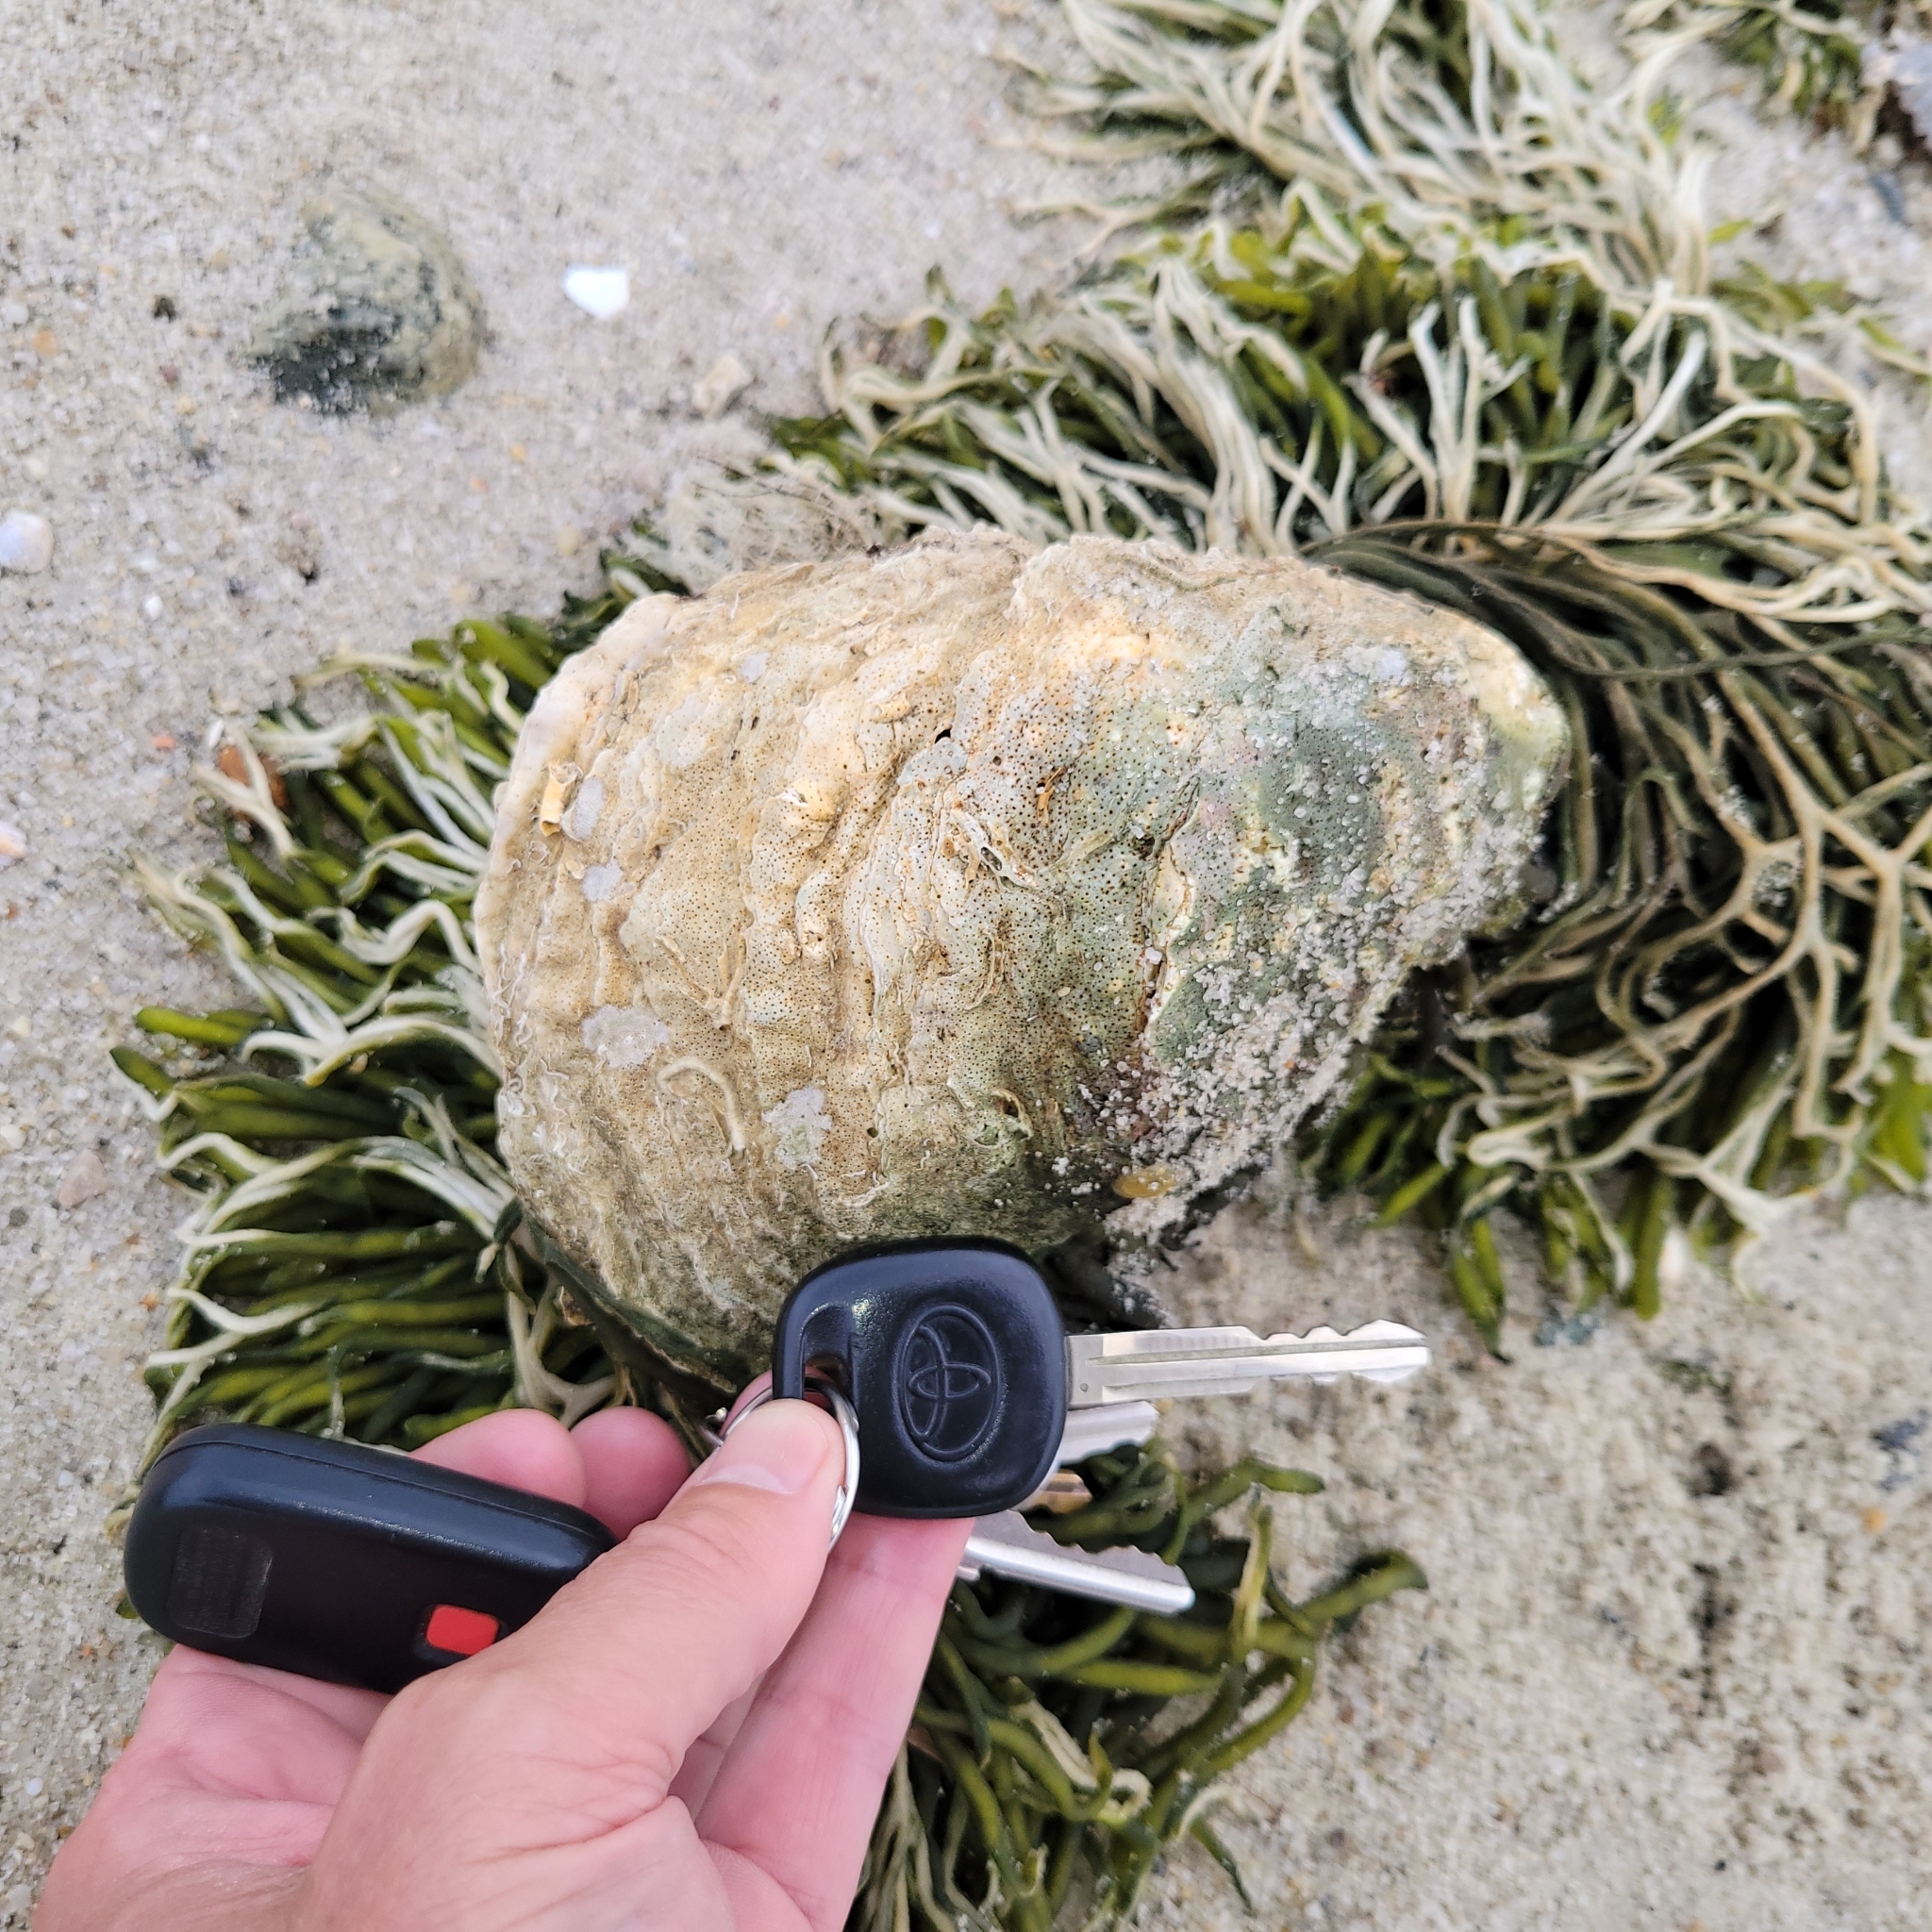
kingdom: Animalia
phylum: Mollusca
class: Bivalvia
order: Ostreida
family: Ostreidae
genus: Crassostrea
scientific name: Crassostrea virginica
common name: American oyster
